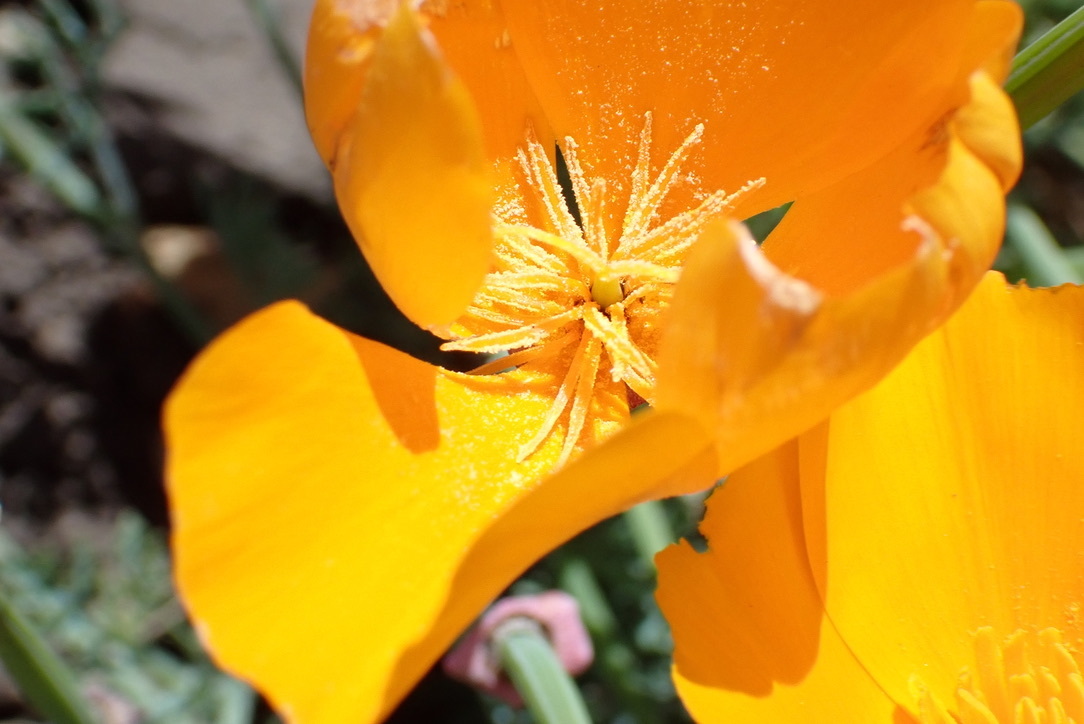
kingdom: Plantae
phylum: Tracheophyta
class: Magnoliopsida
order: Ranunculales
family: Papaveraceae
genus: Eschscholzia
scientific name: Eschscholzia californica
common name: California poppy
